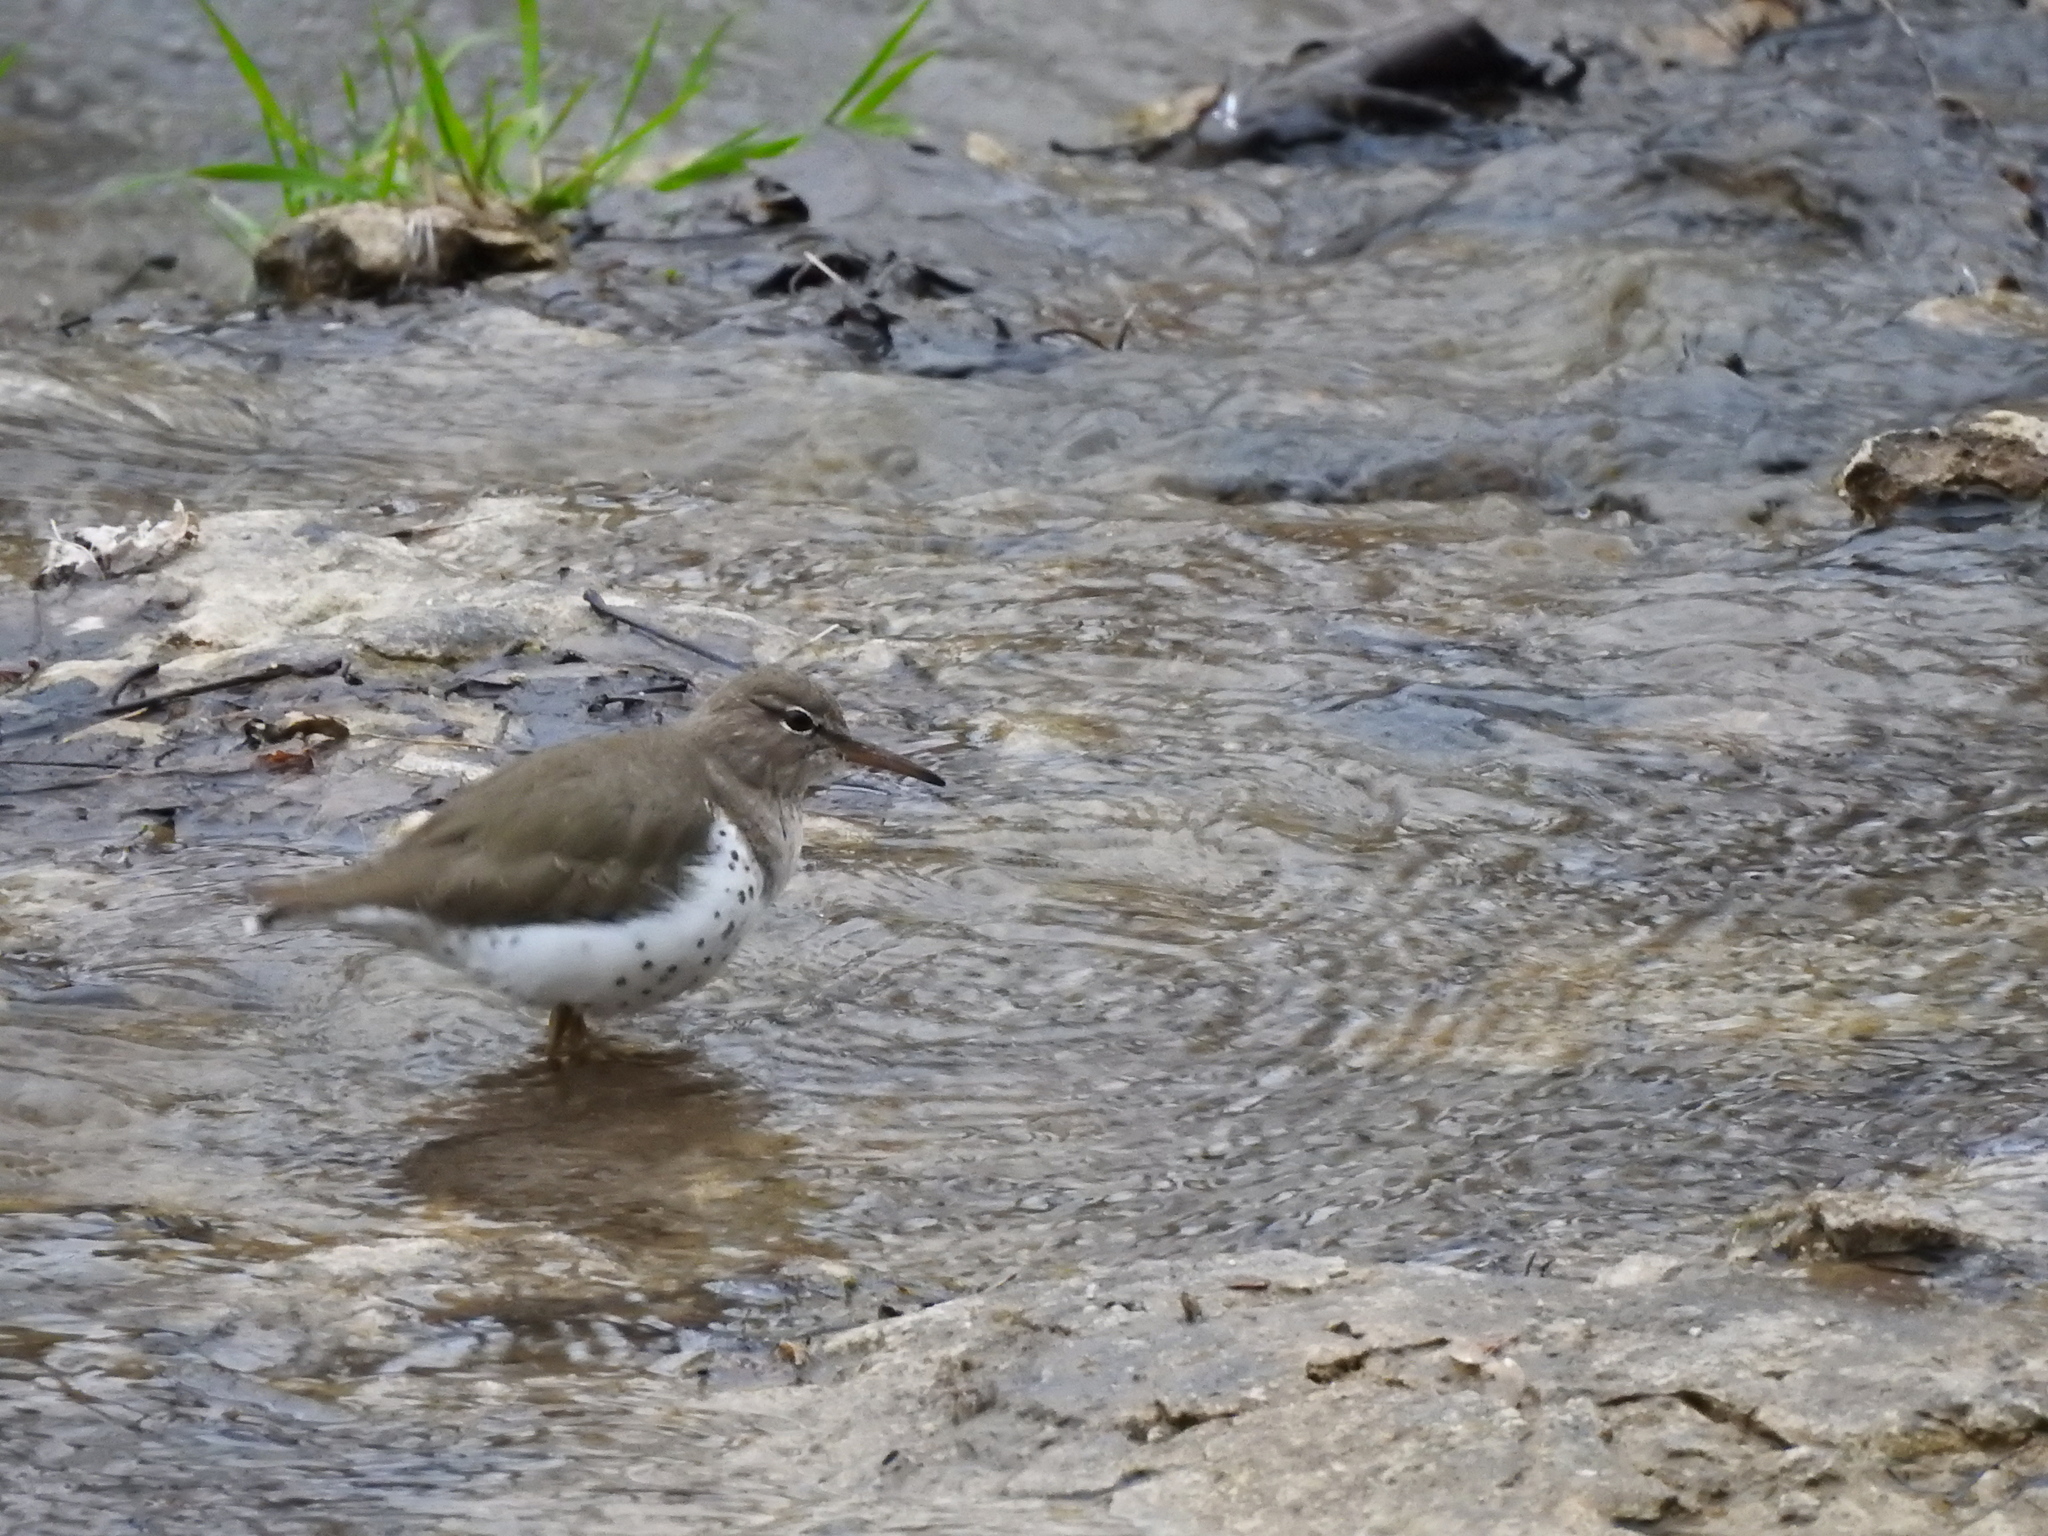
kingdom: Animalia
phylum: Chordata
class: Aves
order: Charadriiformes
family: Scolopacidae
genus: Actitis
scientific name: Actitis macularius
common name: Spotted sandpiper
